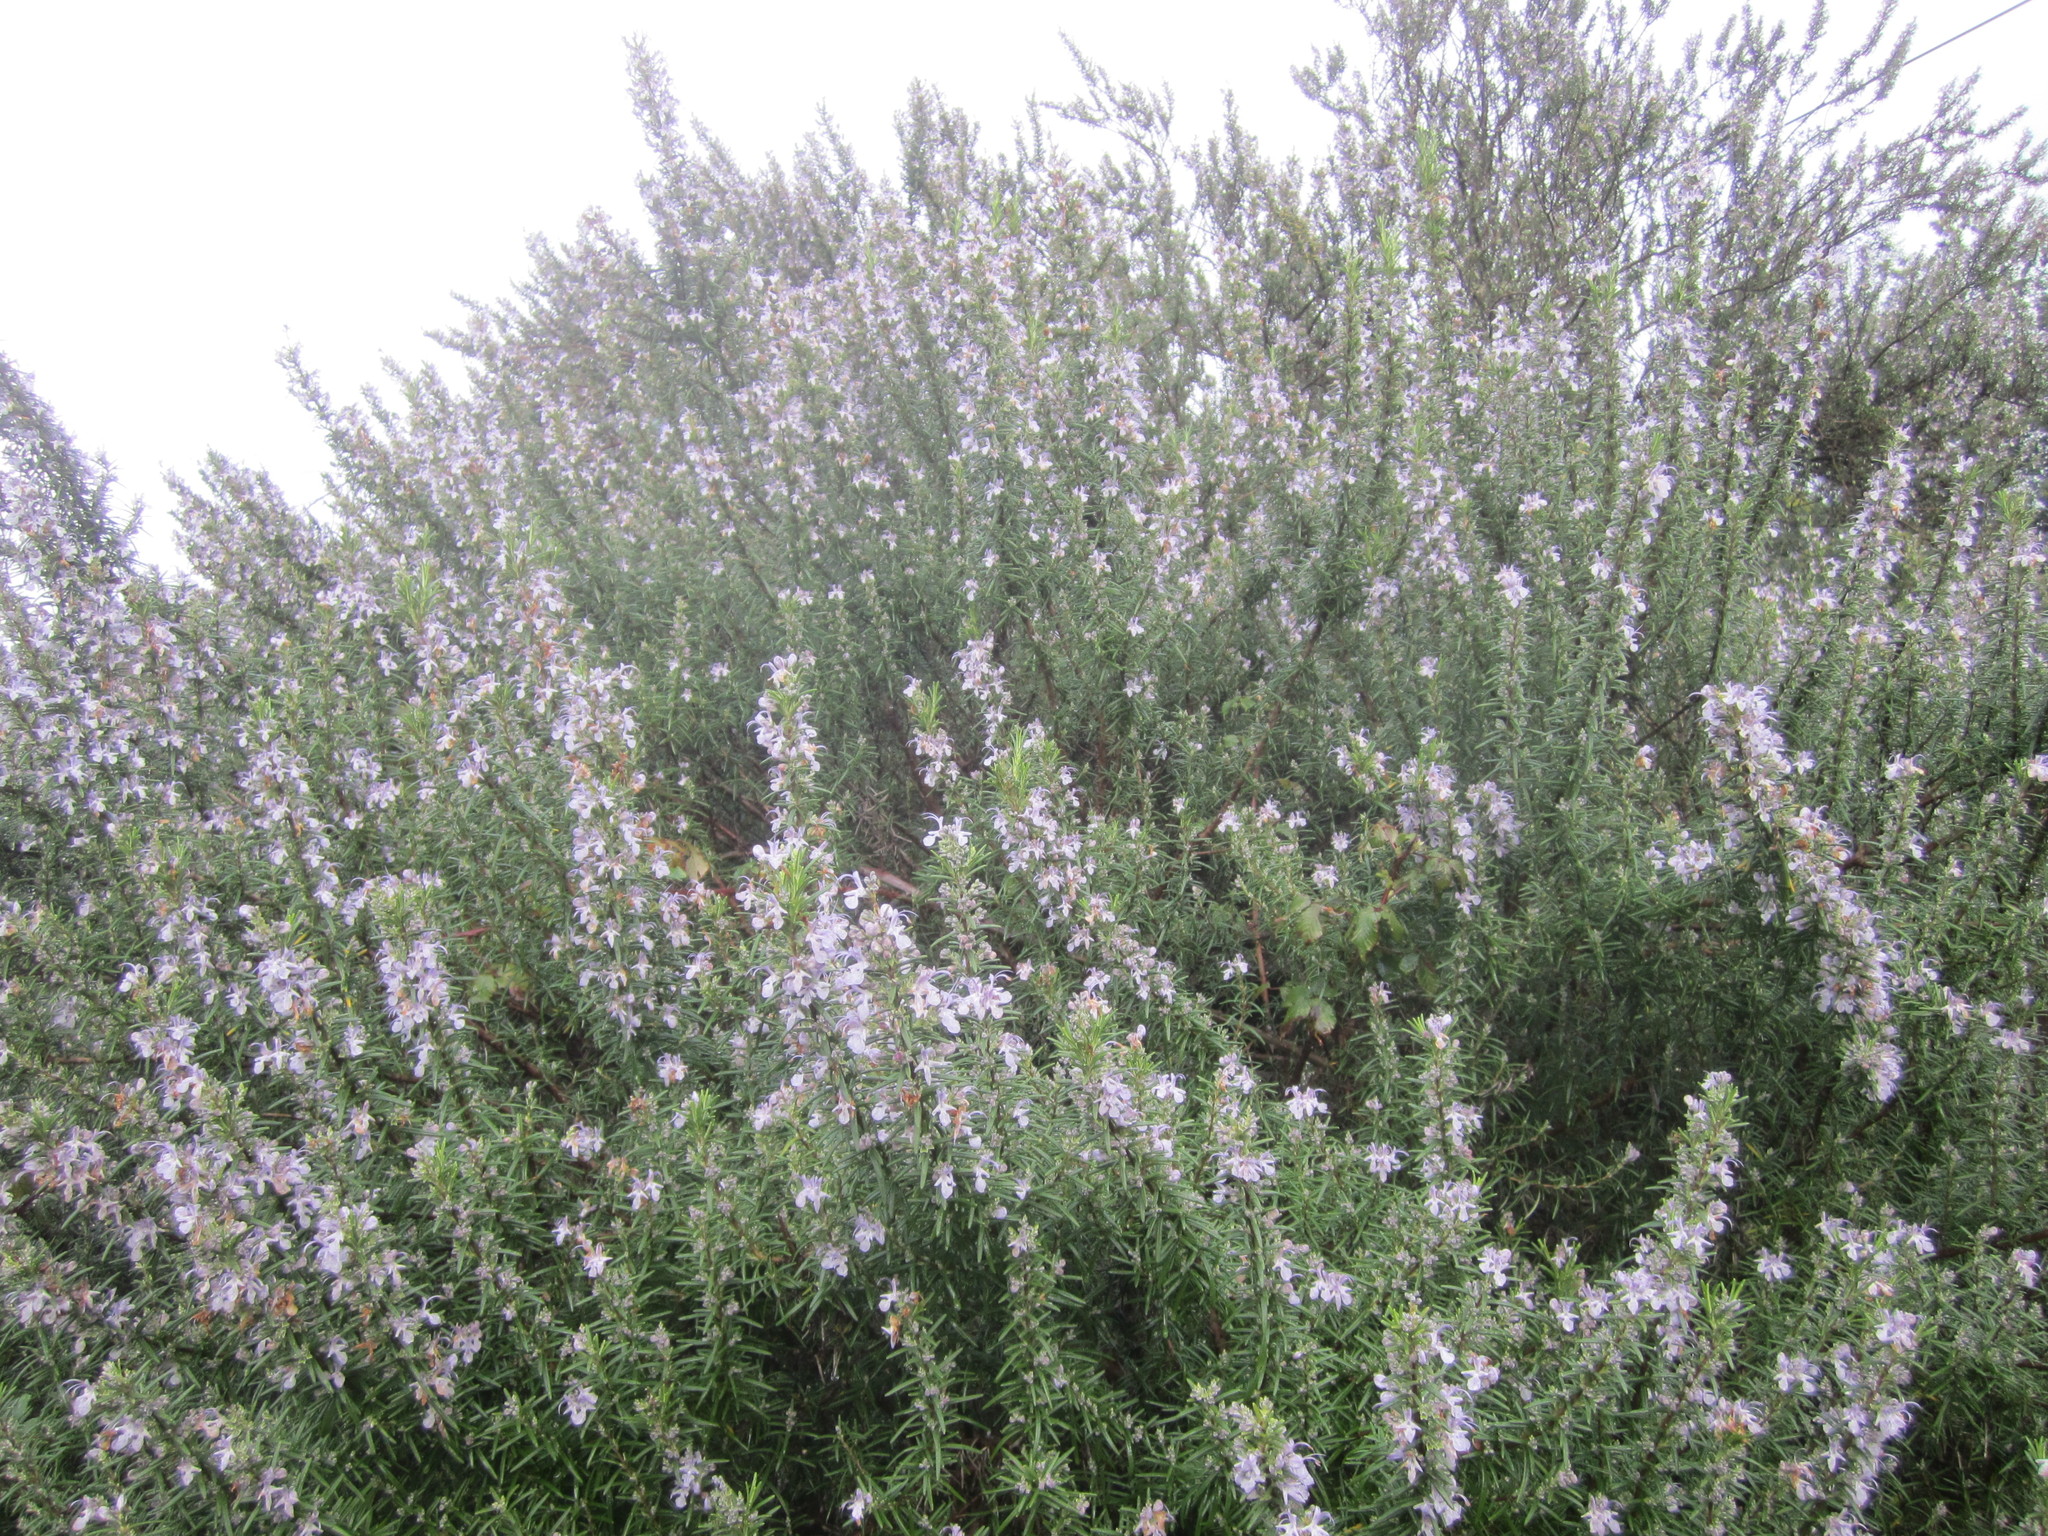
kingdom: Plantae
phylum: Tracheophyta
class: Magnoliopsida
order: Lamiales
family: Lamiaceae
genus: Salvia
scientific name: Salvia rosmarinus
